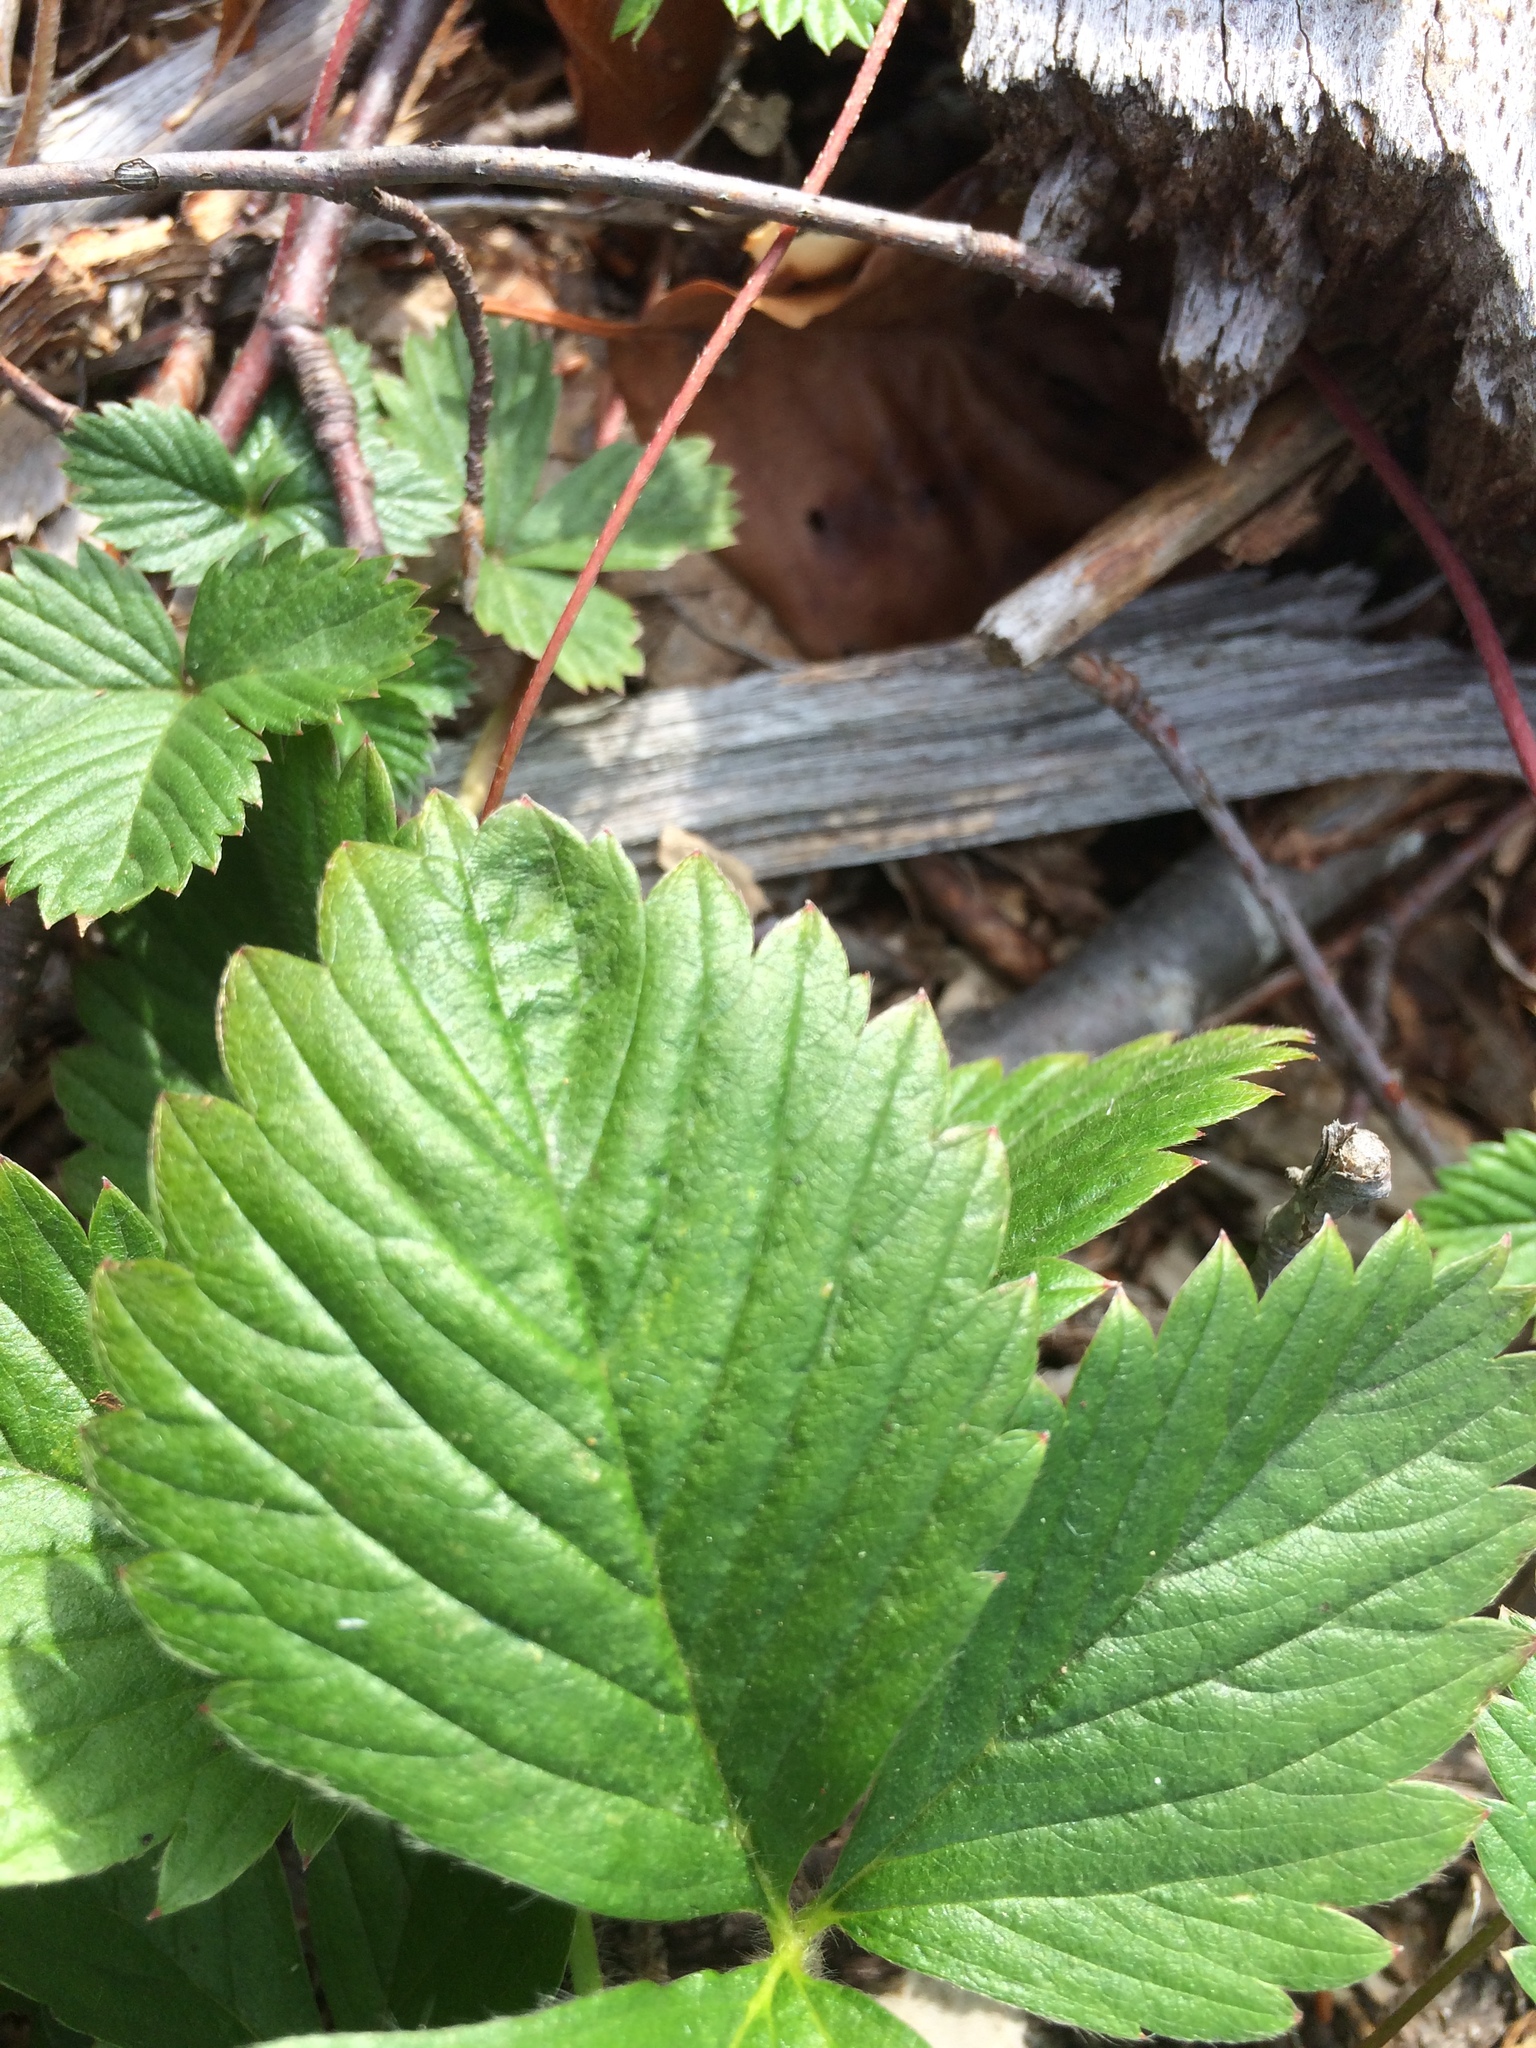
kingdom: Plantae
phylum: Tracheophyta
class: Magnoliopsida
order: Rosales
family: Rosaceae
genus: Fragaria
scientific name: Fragaria vesca
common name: Wild strawberry
